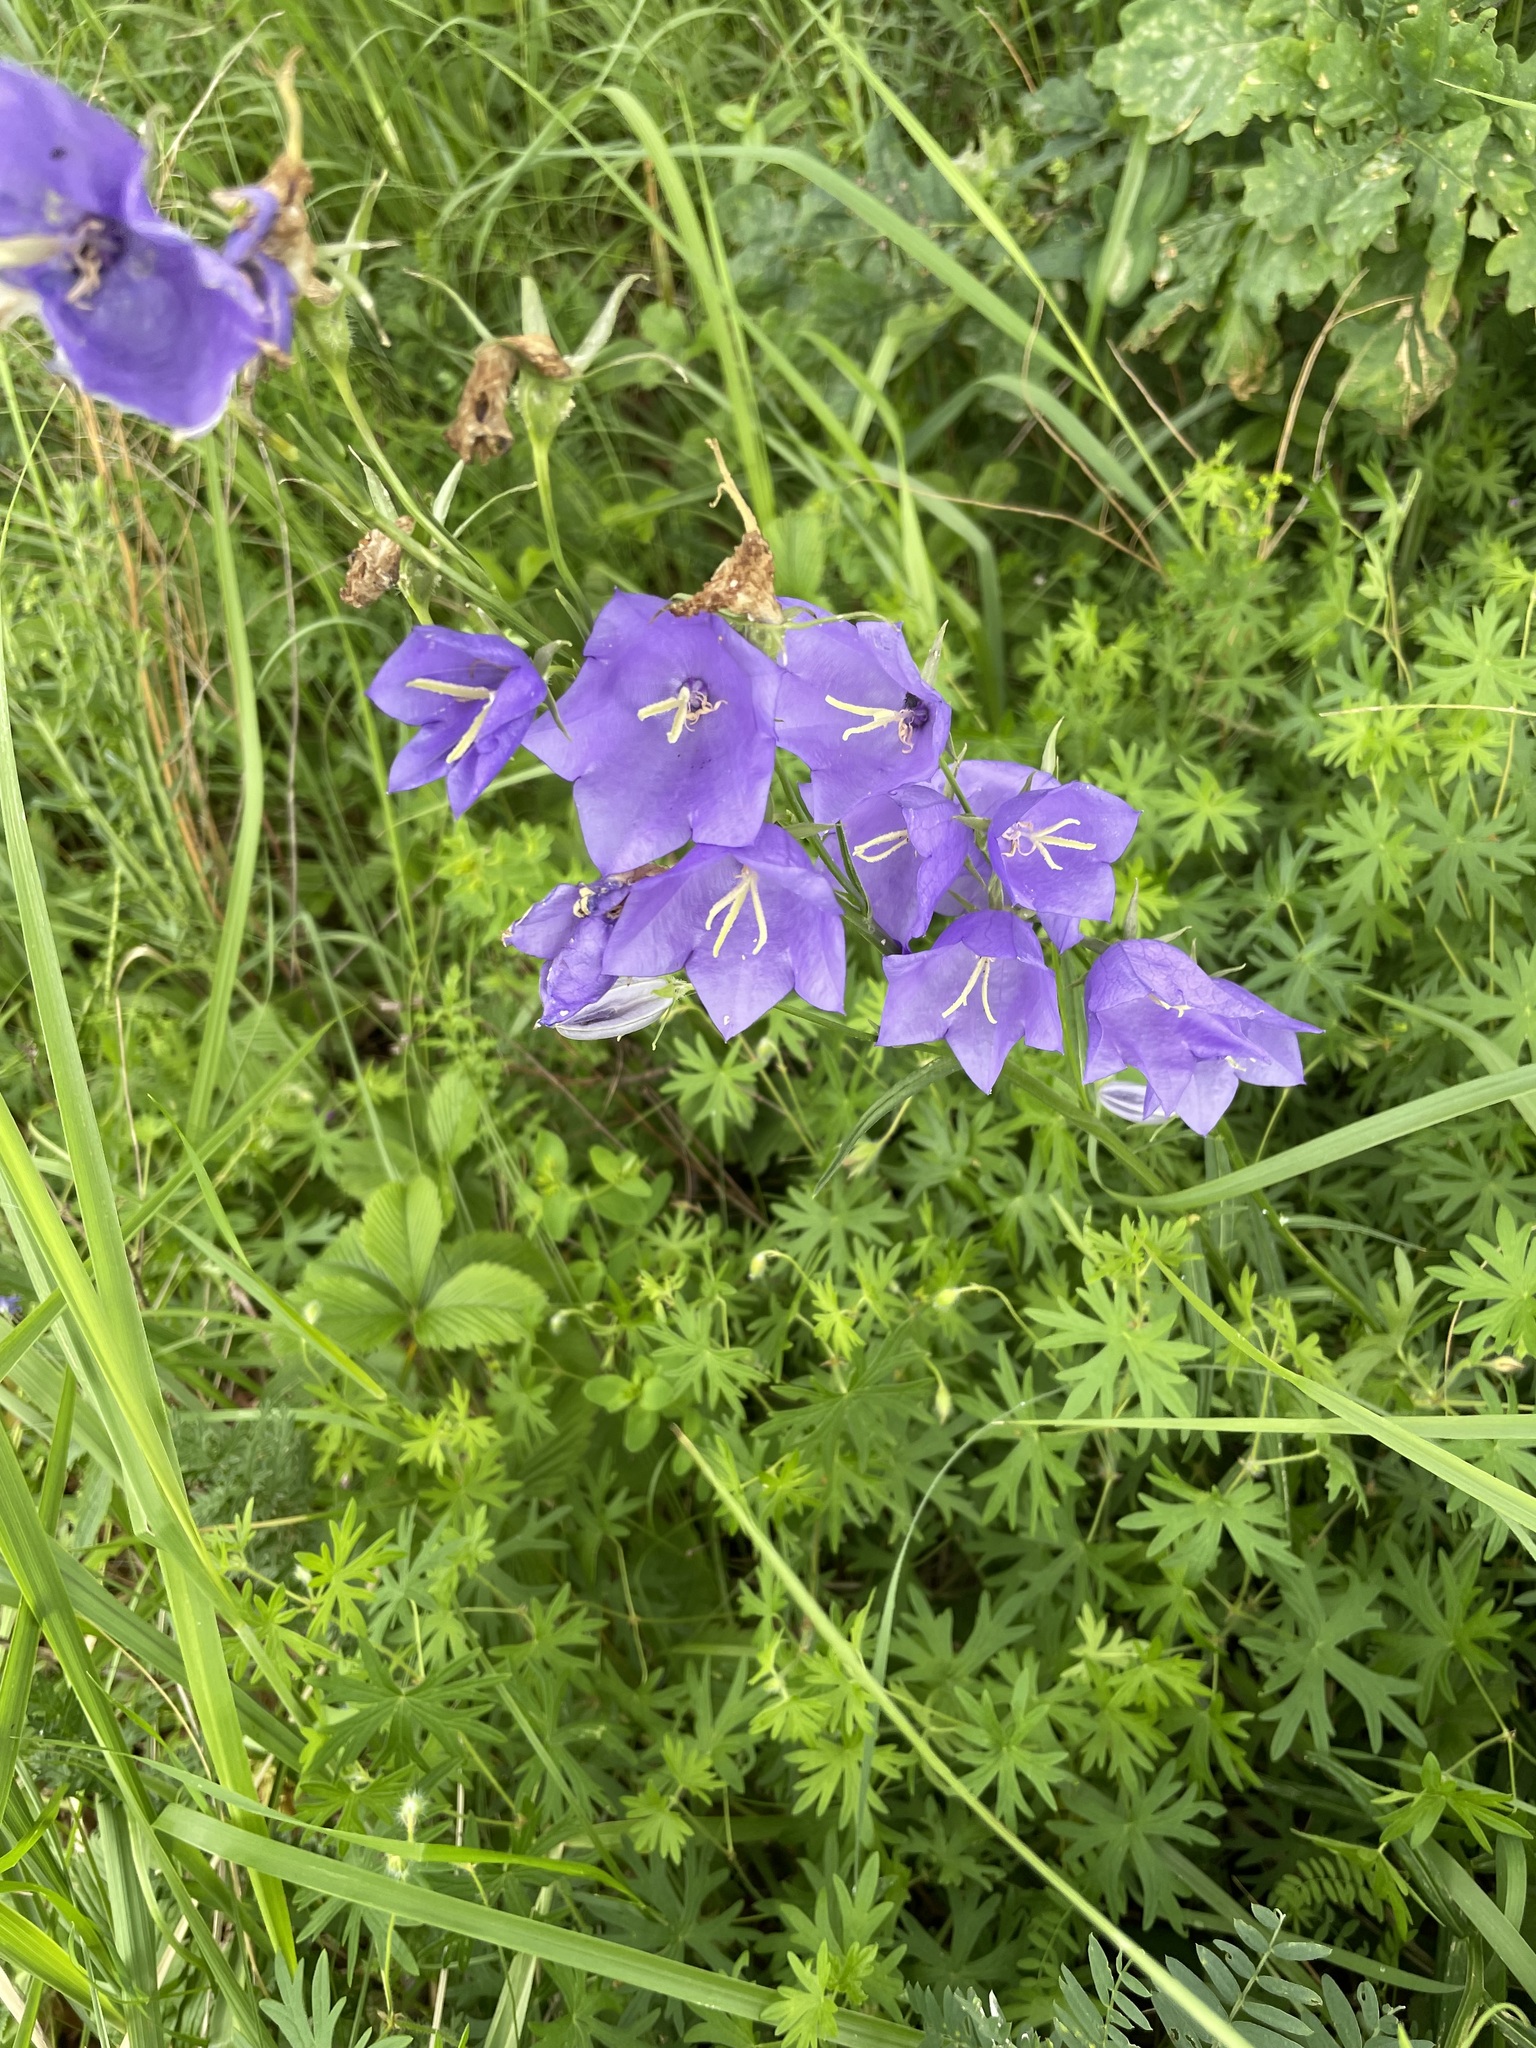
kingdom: Plantae
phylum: Tracheophyta
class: Magnoliopsida
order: Lamiales
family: Plantaginaceae
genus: Veronica
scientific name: Veronica teucrium
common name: Large speedwell
